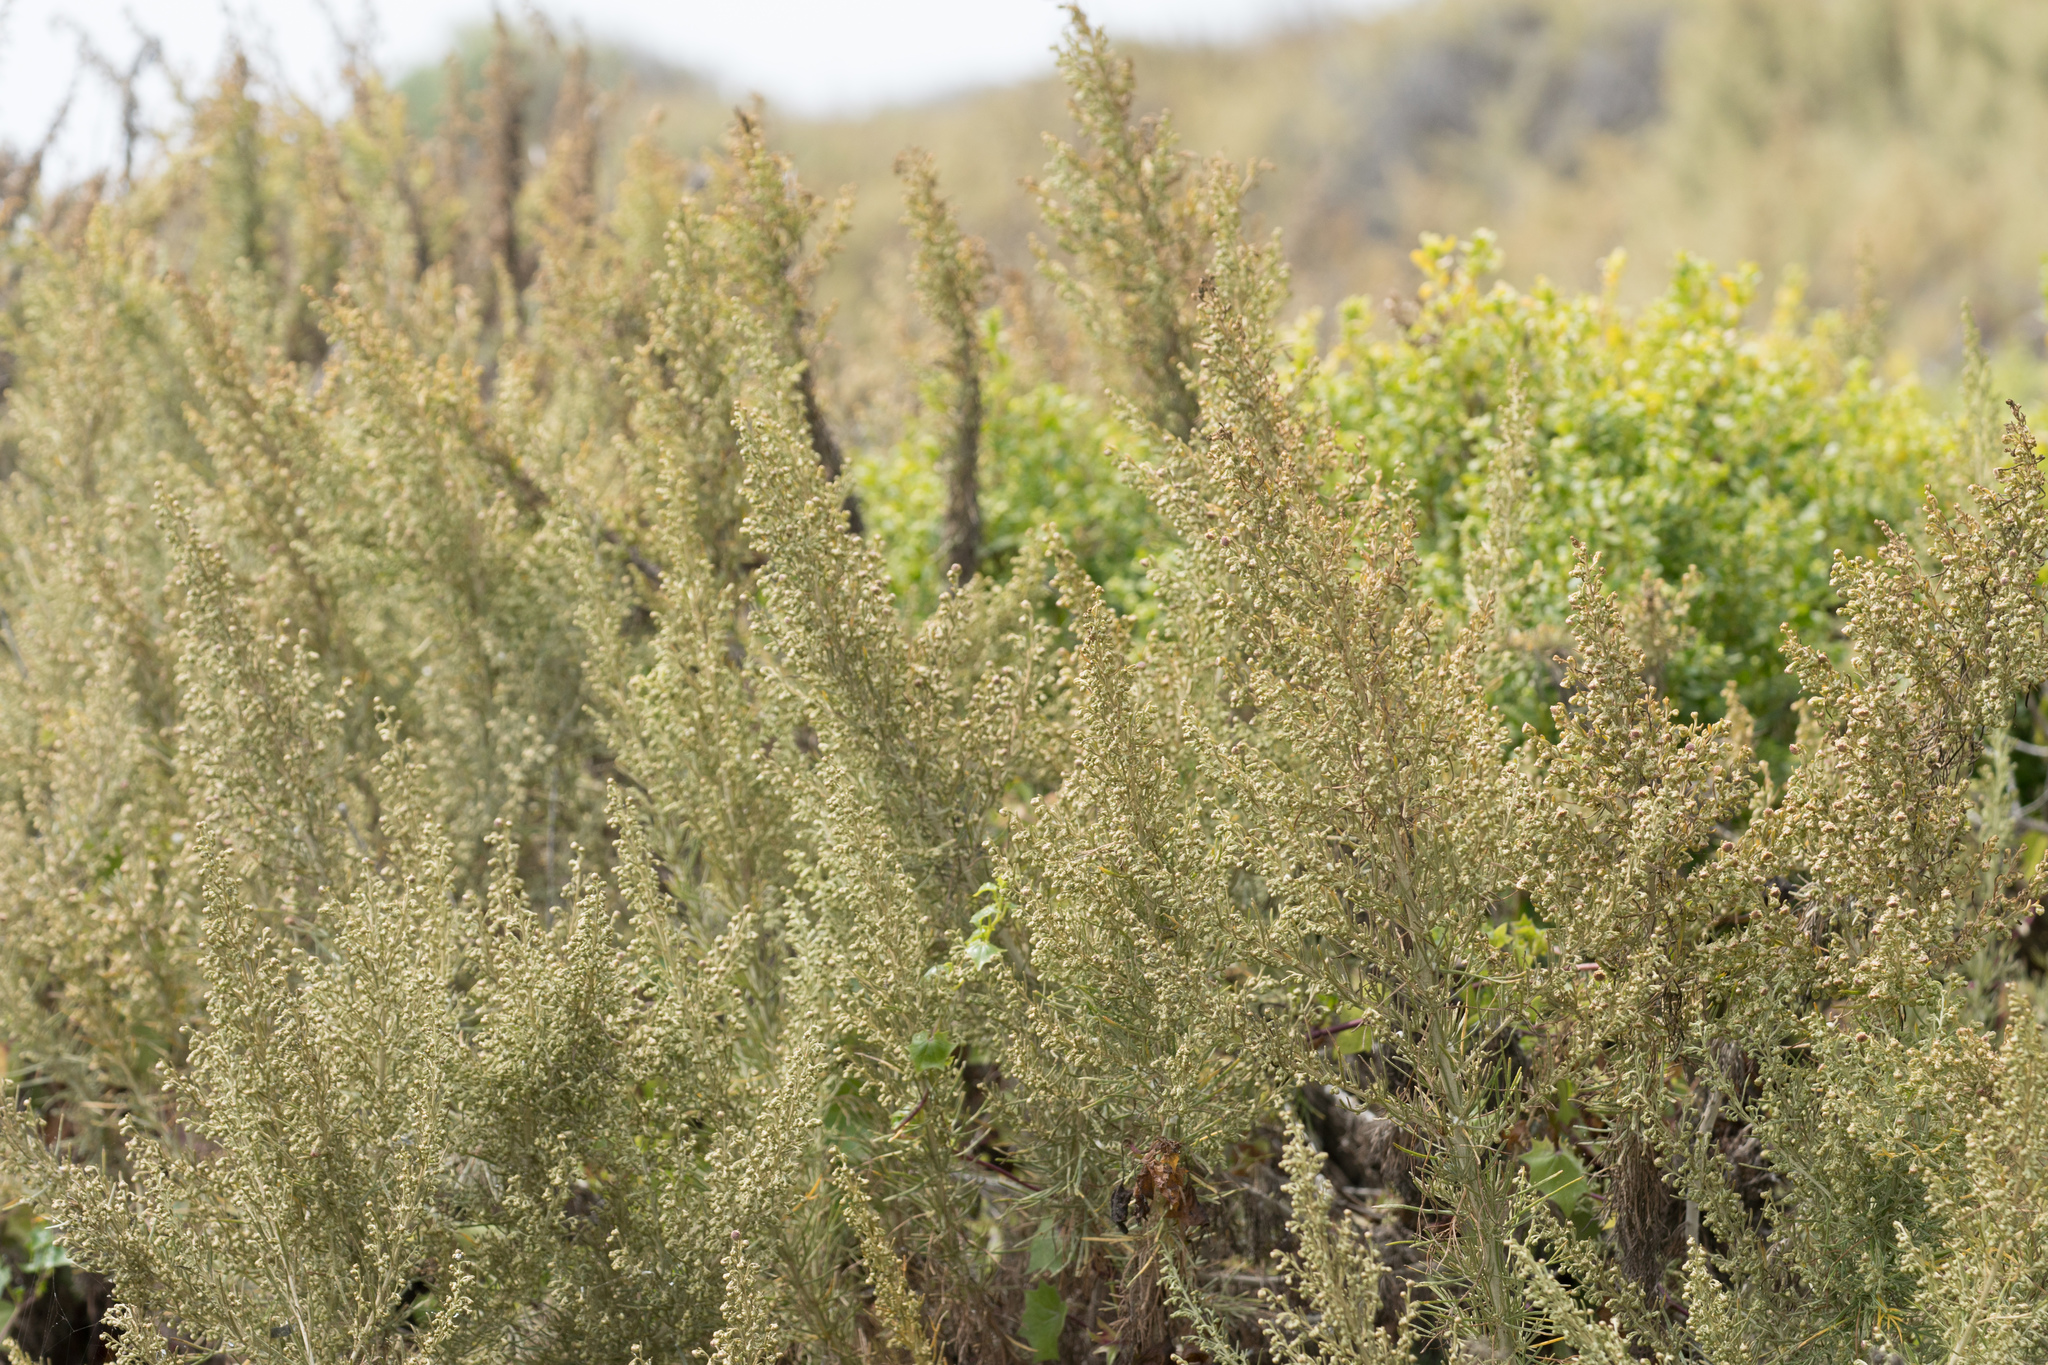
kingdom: Plantae
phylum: Tracheophyta
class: Magnoliopsida
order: Asterales
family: Asteraceae
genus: Artemisia
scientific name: Artemisia californica
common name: California sagebrush
